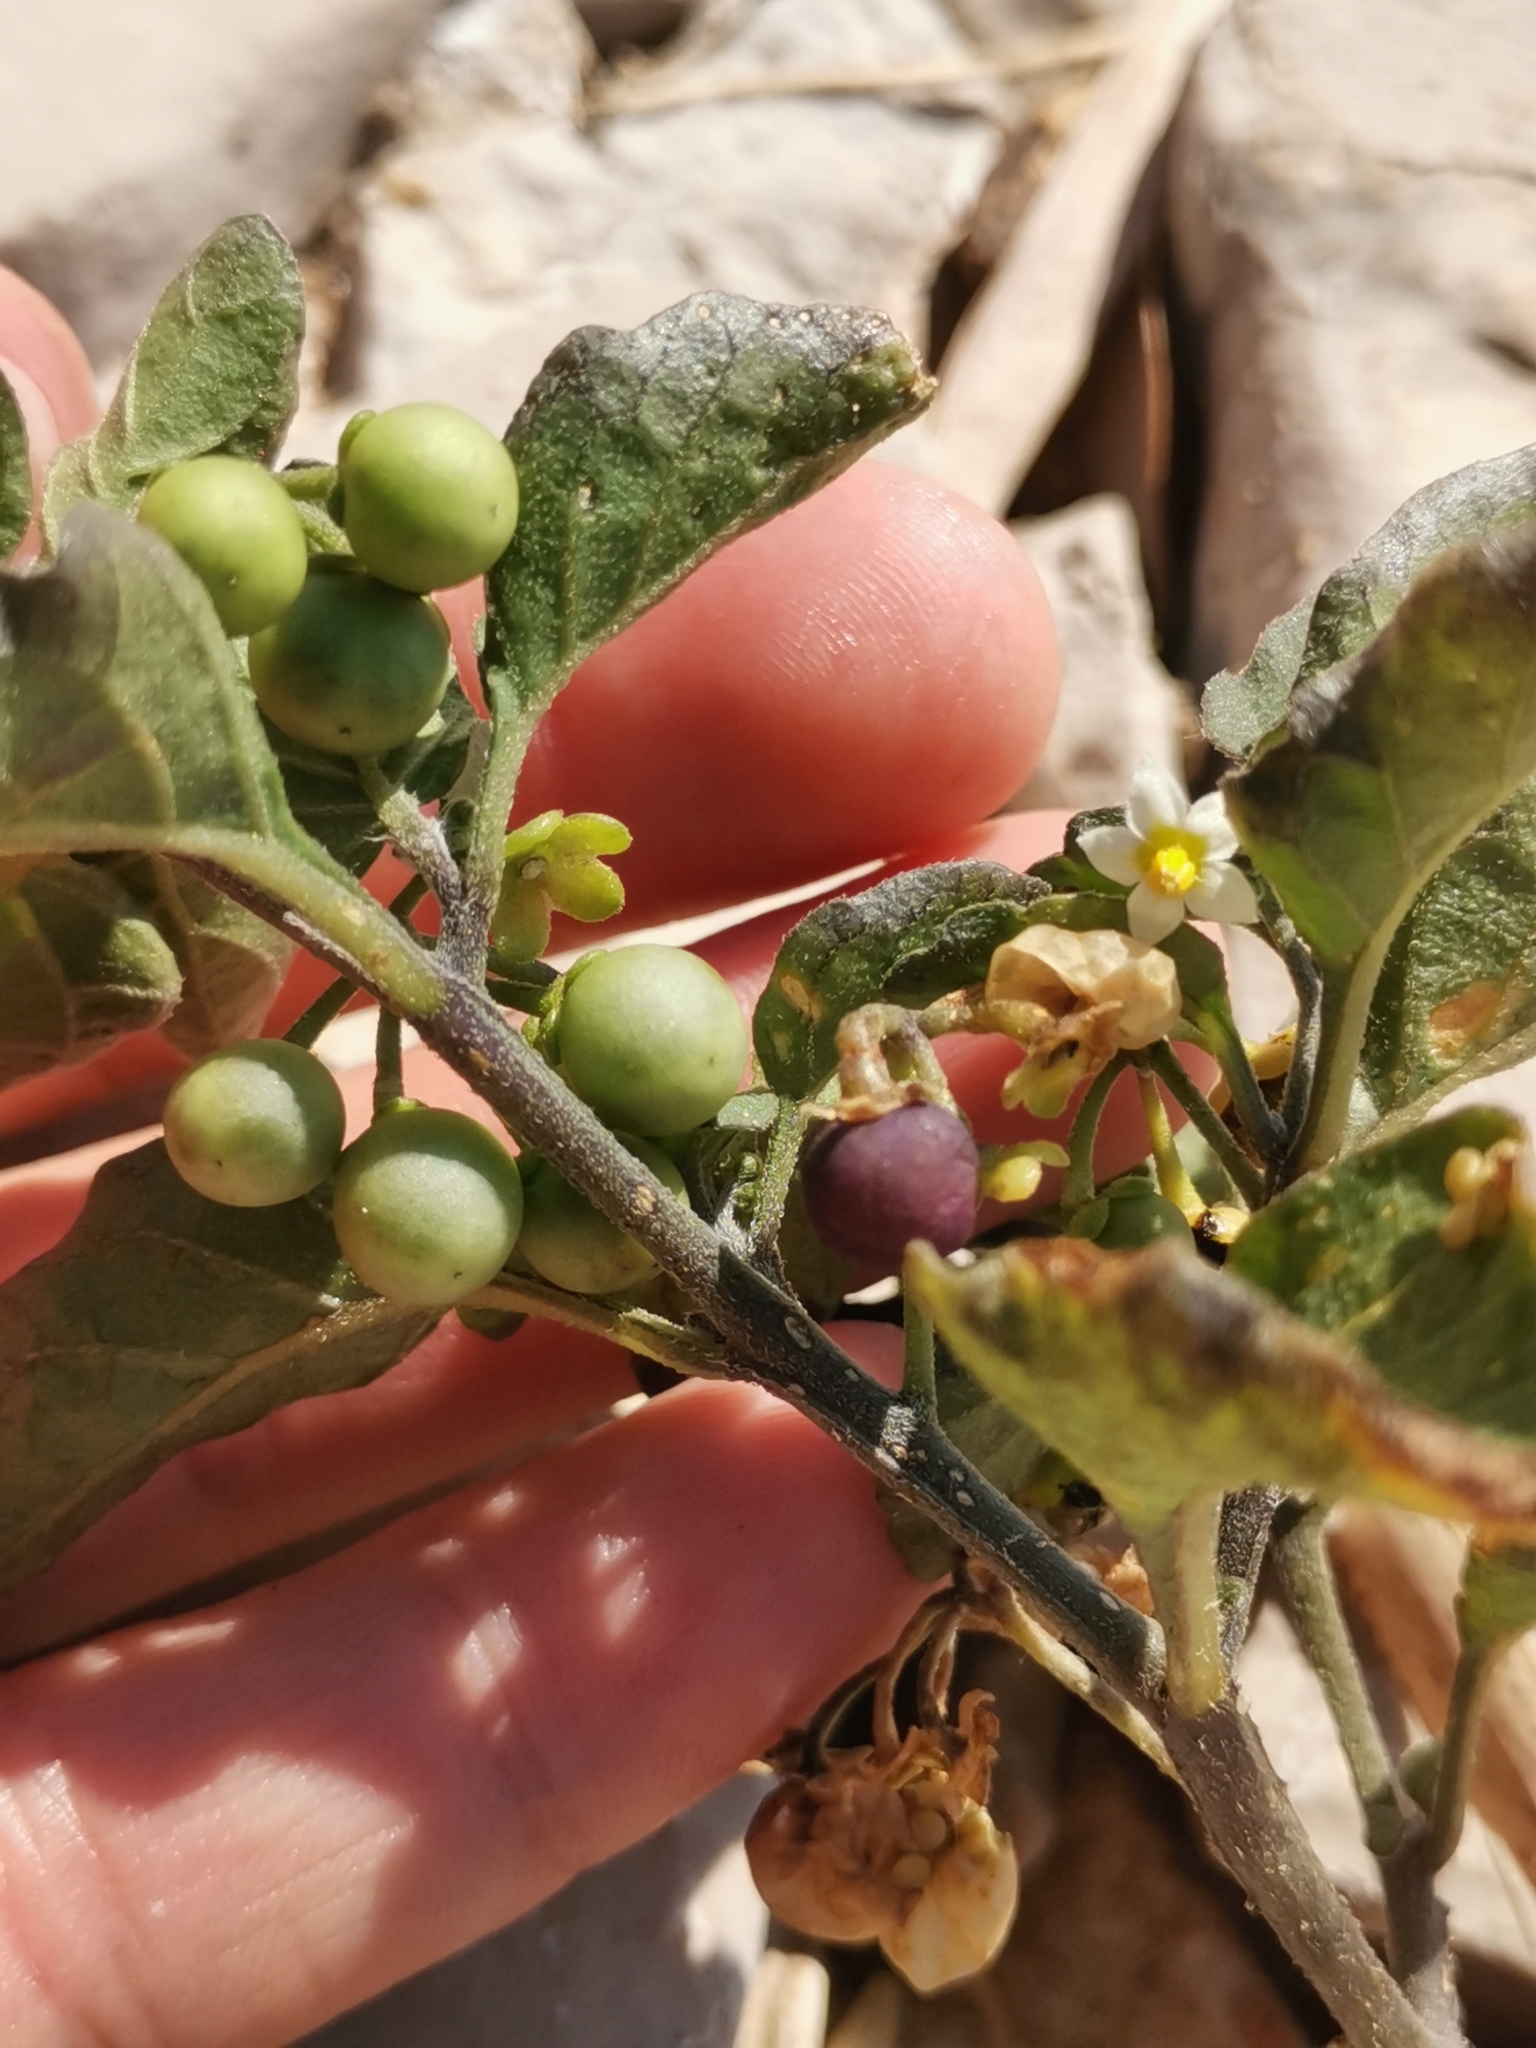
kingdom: Plantae
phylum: Tracheophyta
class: Magnoliopsida
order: Solanales
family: Solanaceae
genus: Solanum
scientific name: Solanum nigrum
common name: Black nightshade
